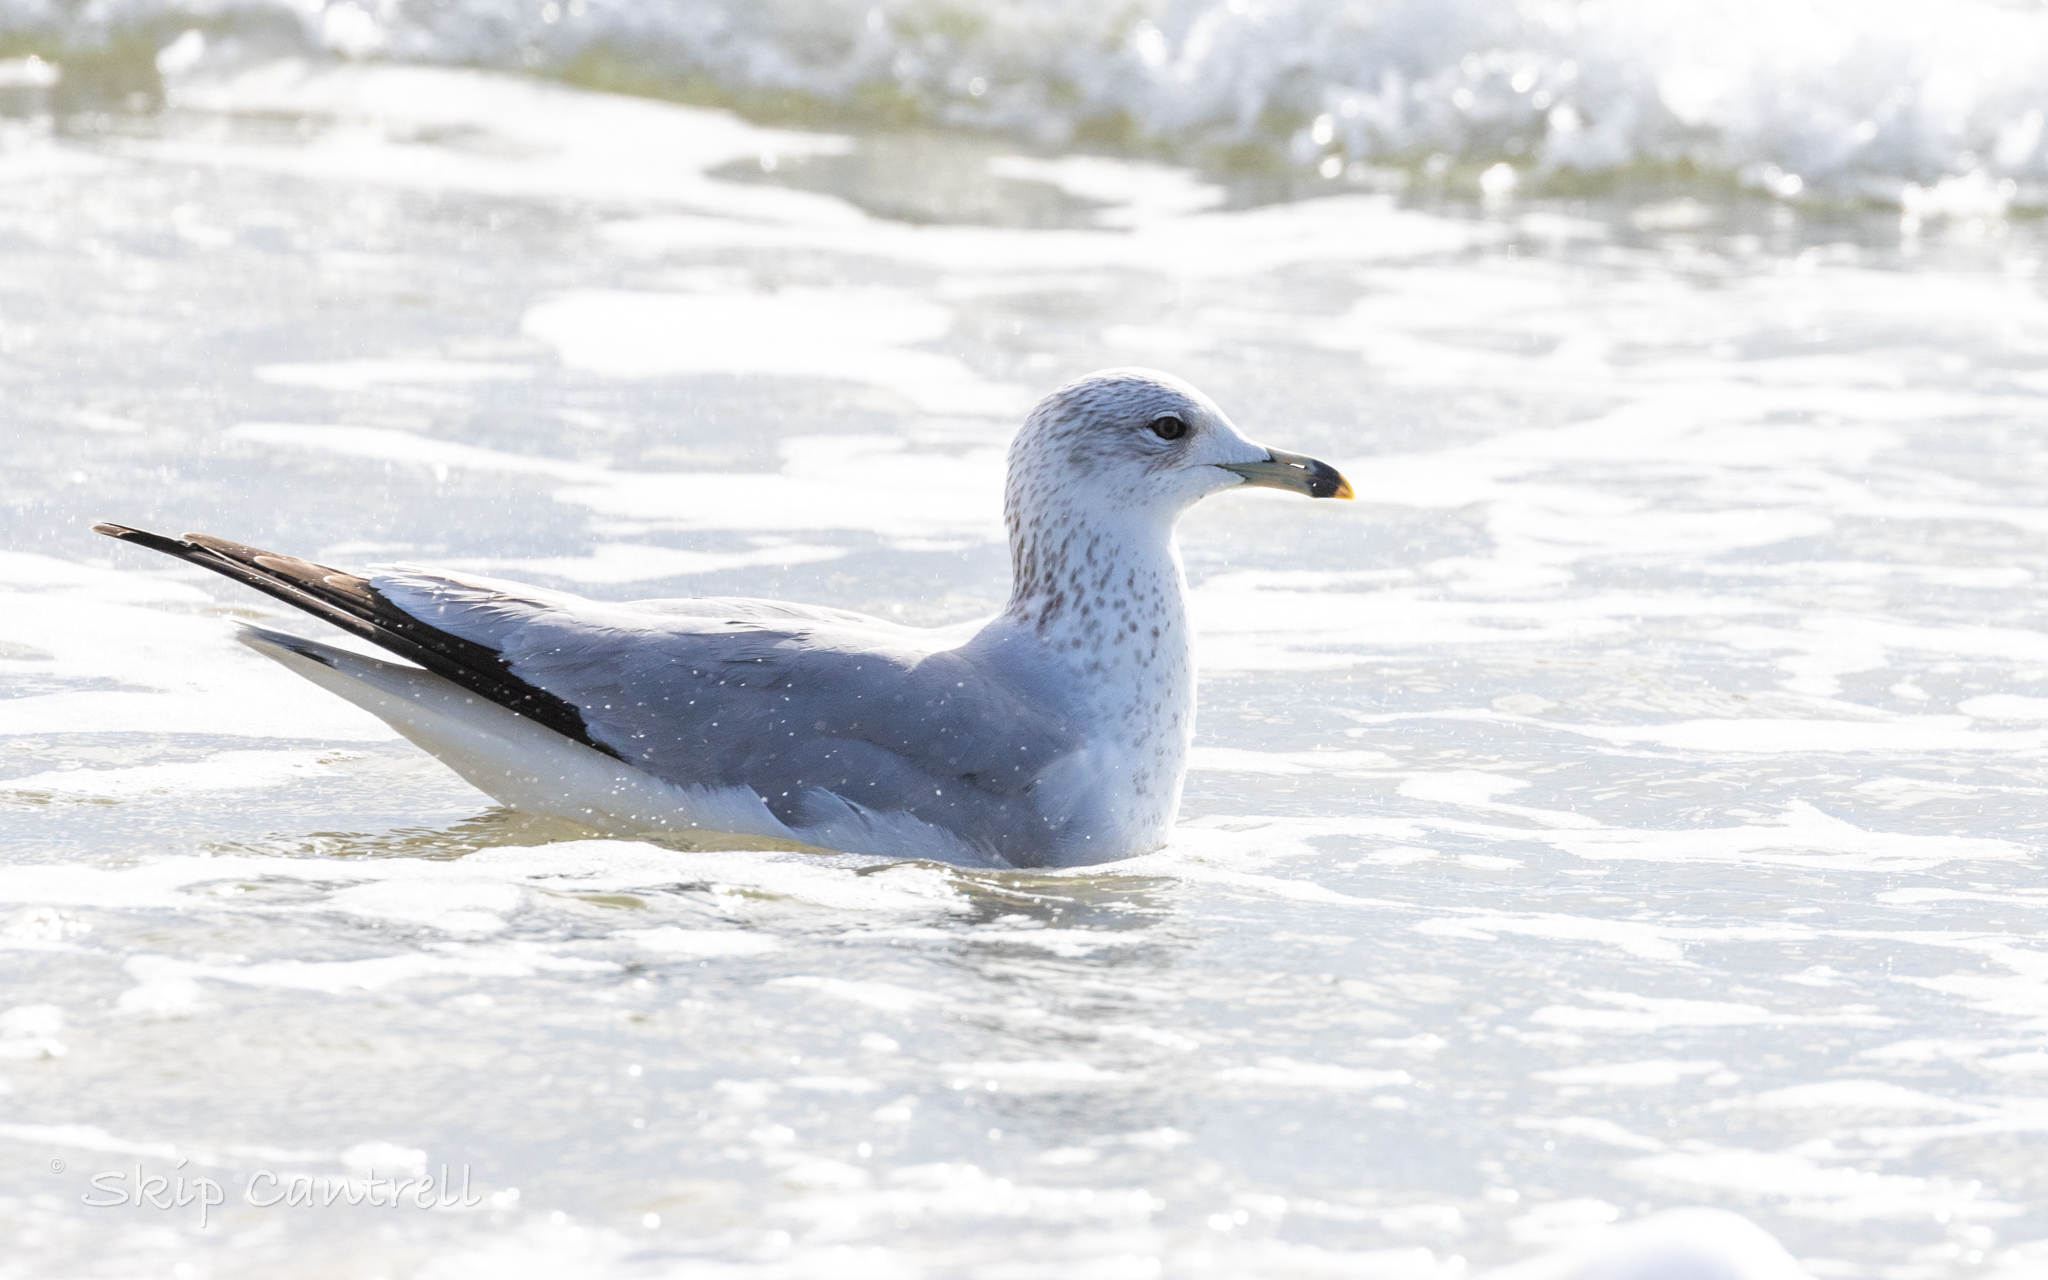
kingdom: Animalia
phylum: Chordata
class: Aves
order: Charadriiformes
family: Laridae
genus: Larus
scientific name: Larus delawarensis
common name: Ring-billed gull
